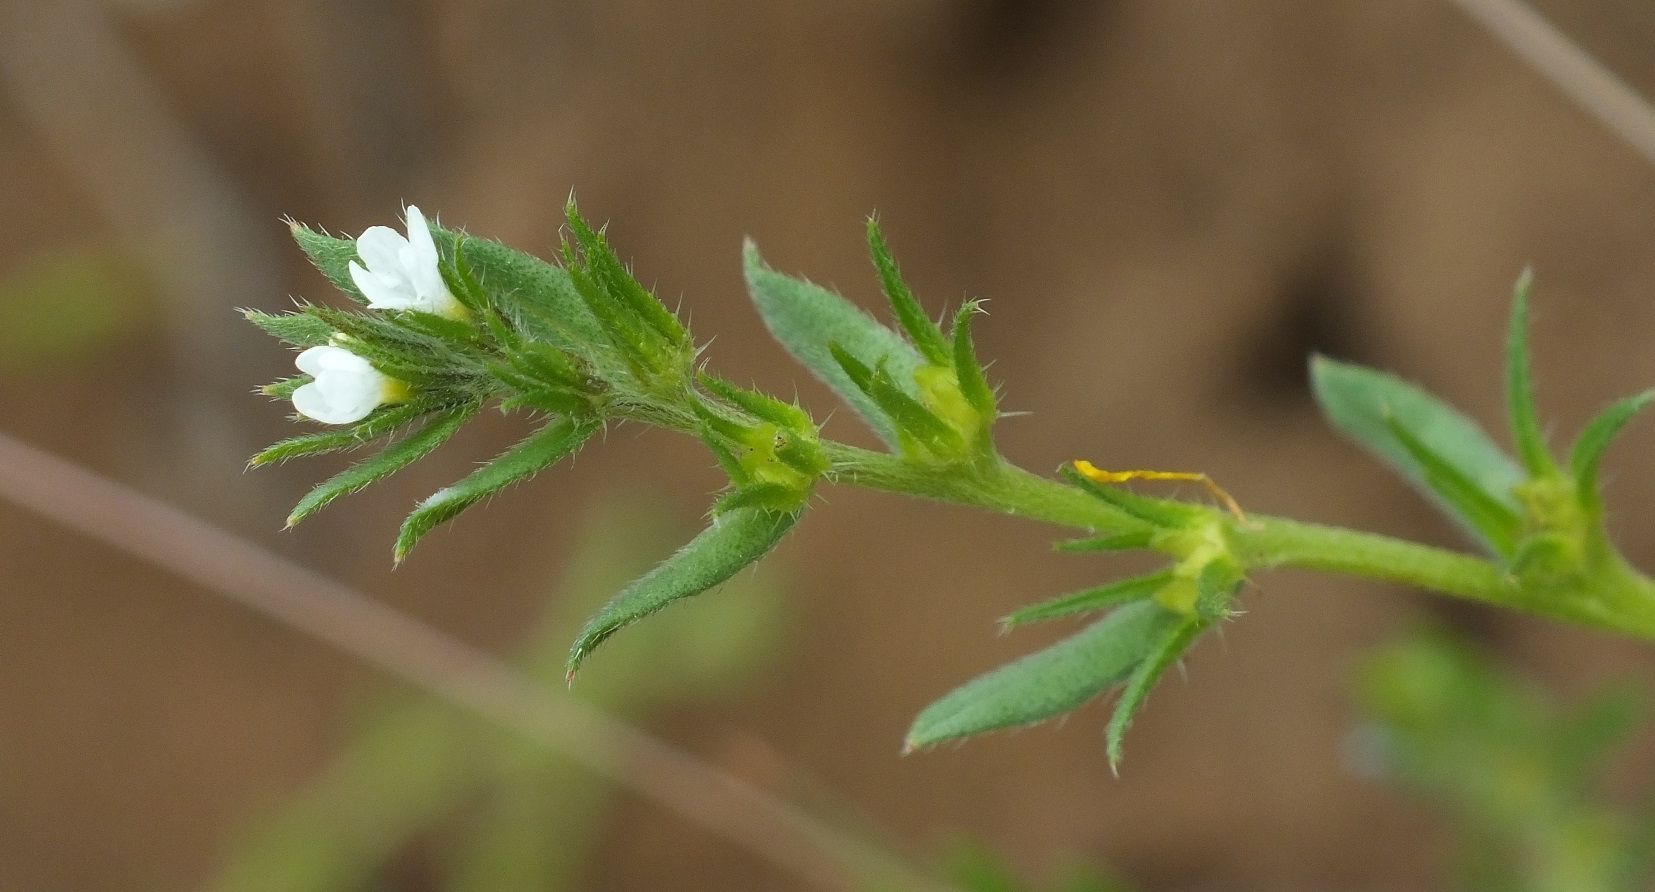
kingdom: Plantae
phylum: Tracheophyta
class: Magnoliopsida
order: Boraginales
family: Boraginaceae
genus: Buglossoides
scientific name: Buglossoides arvensis
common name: Corn gromwell
